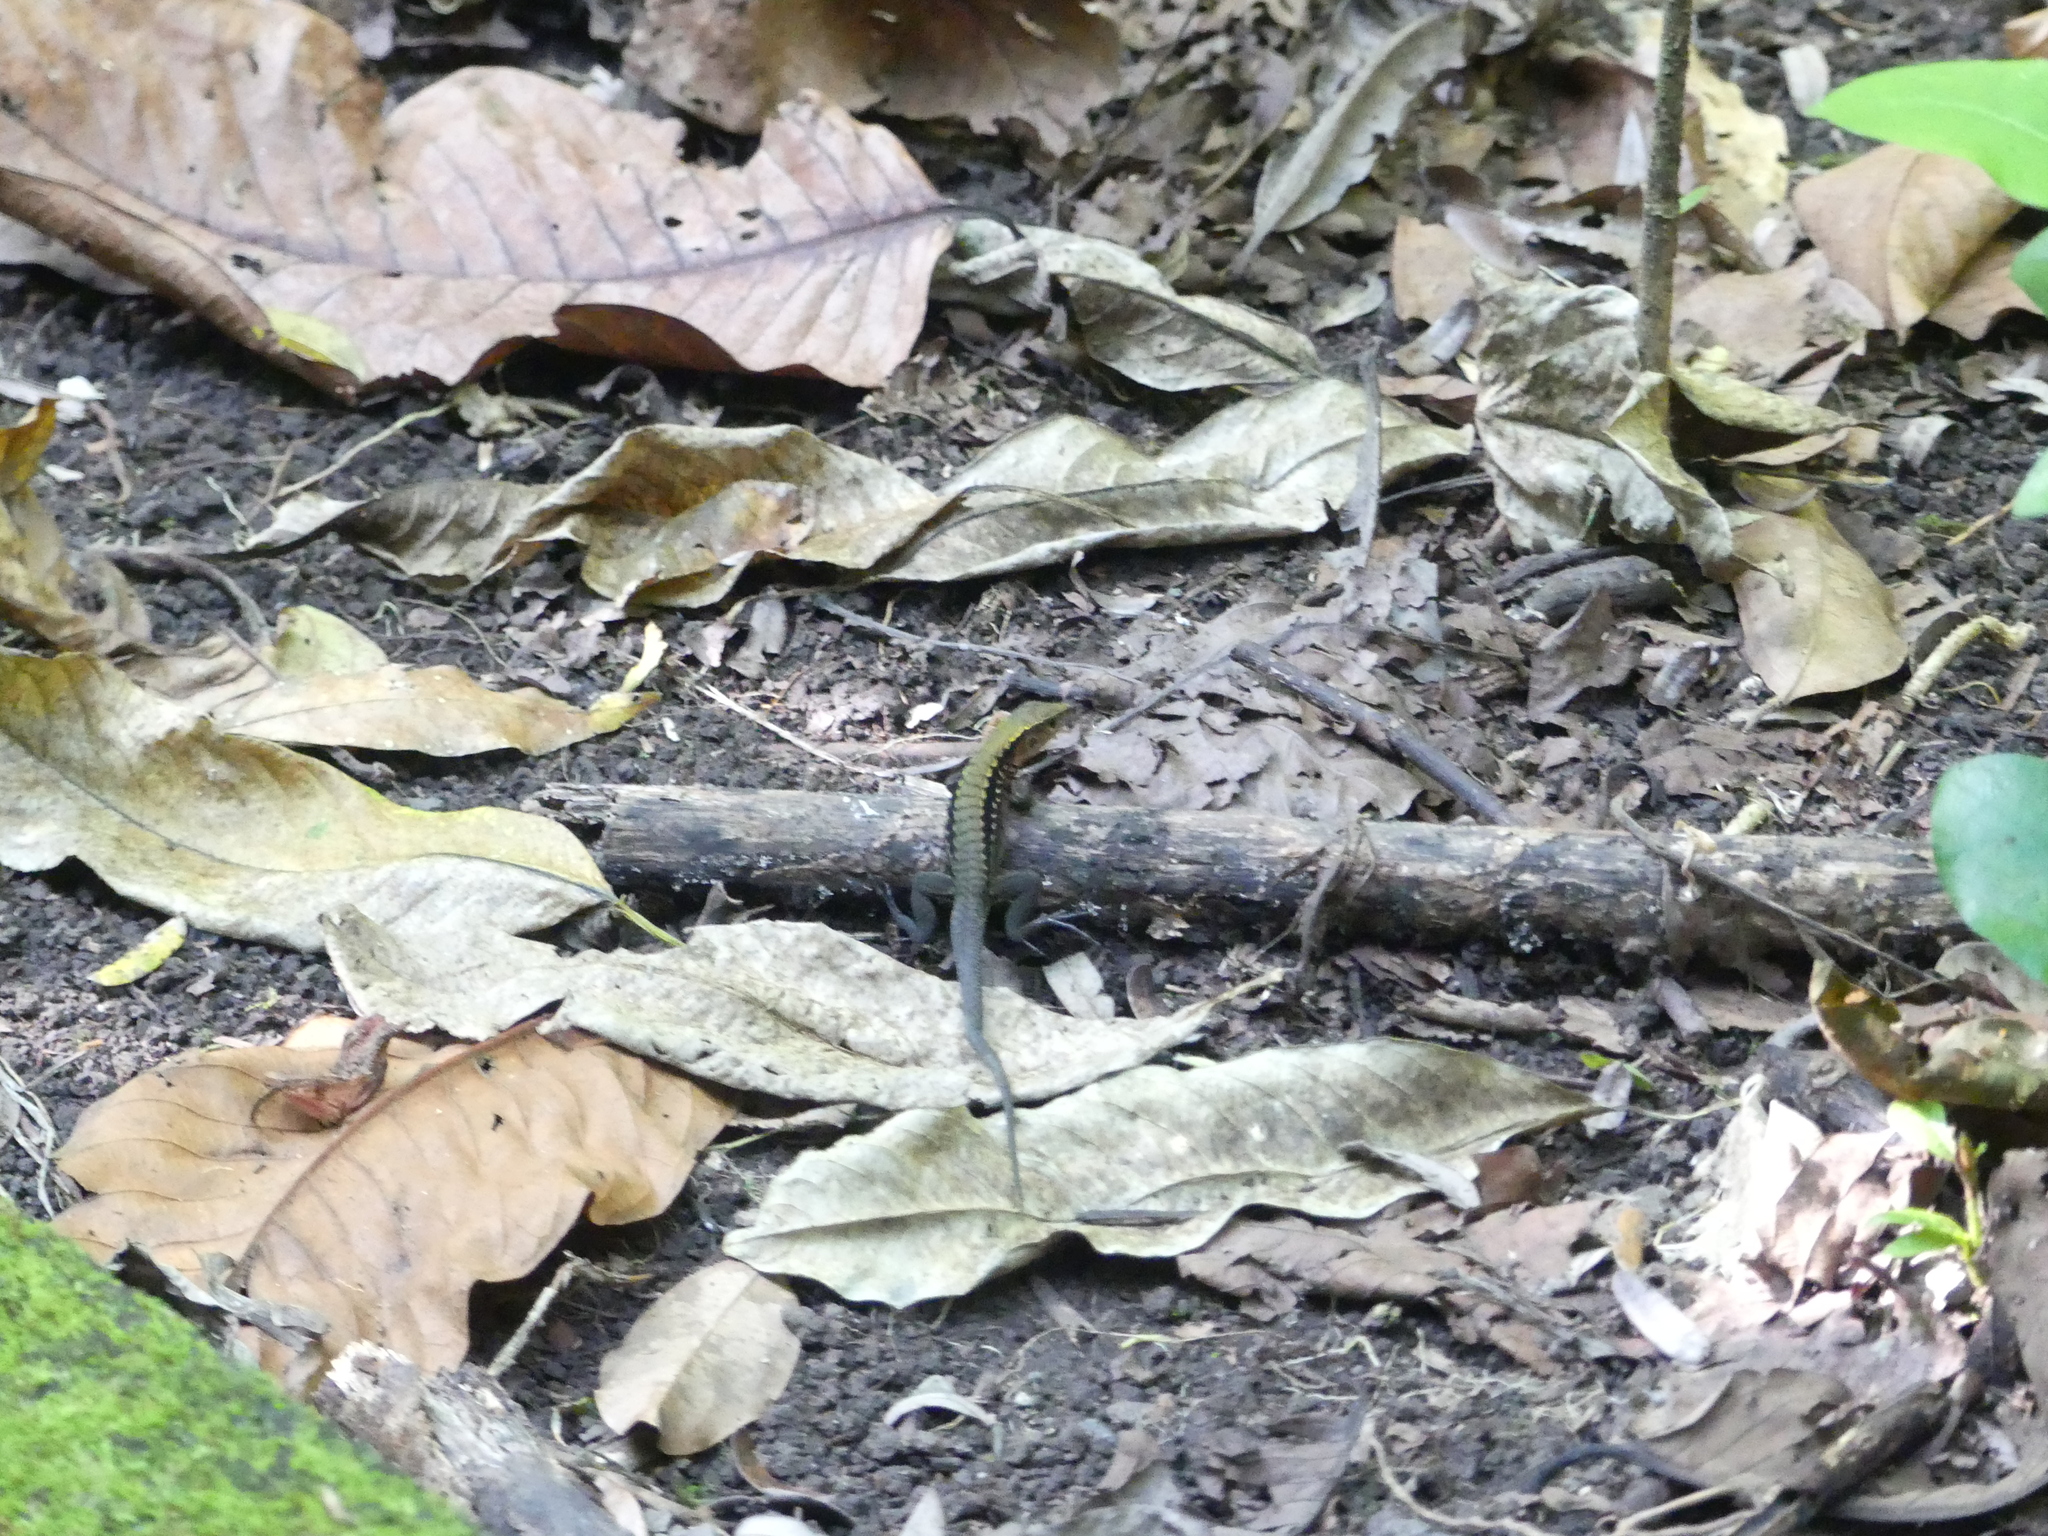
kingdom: Animalia
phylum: Chordata
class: Squamata
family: Teiidae
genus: Holcosus
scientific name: Holcosus leptophrys
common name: Delicate ameiva
